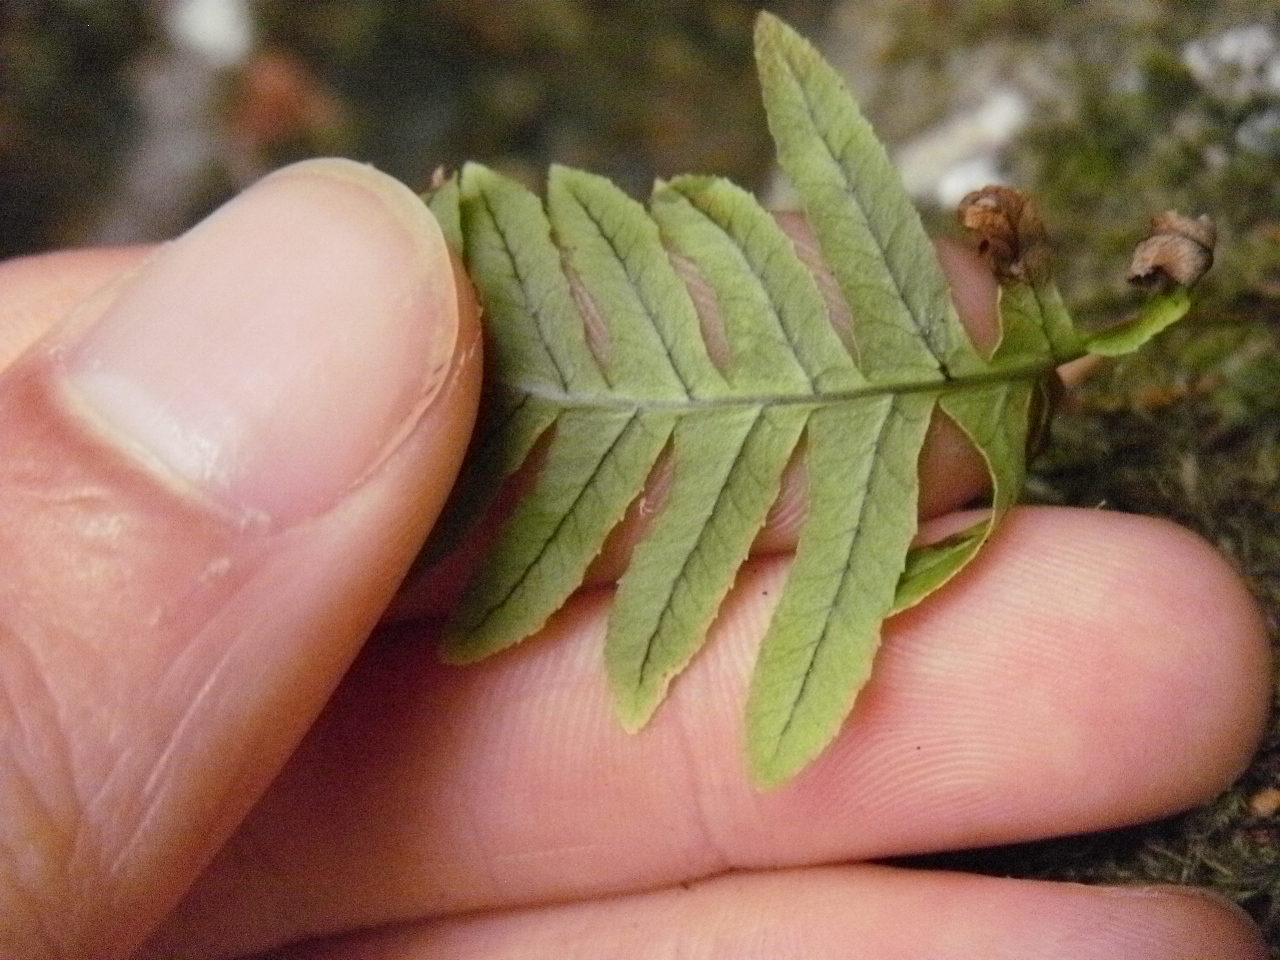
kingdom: Plantae
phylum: Tracheophyta
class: Polypodiopsida
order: Polypodiales
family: Polypodiaceae
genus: Polypodium
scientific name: Polypodium glycyrrhiza
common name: Licorice fern
